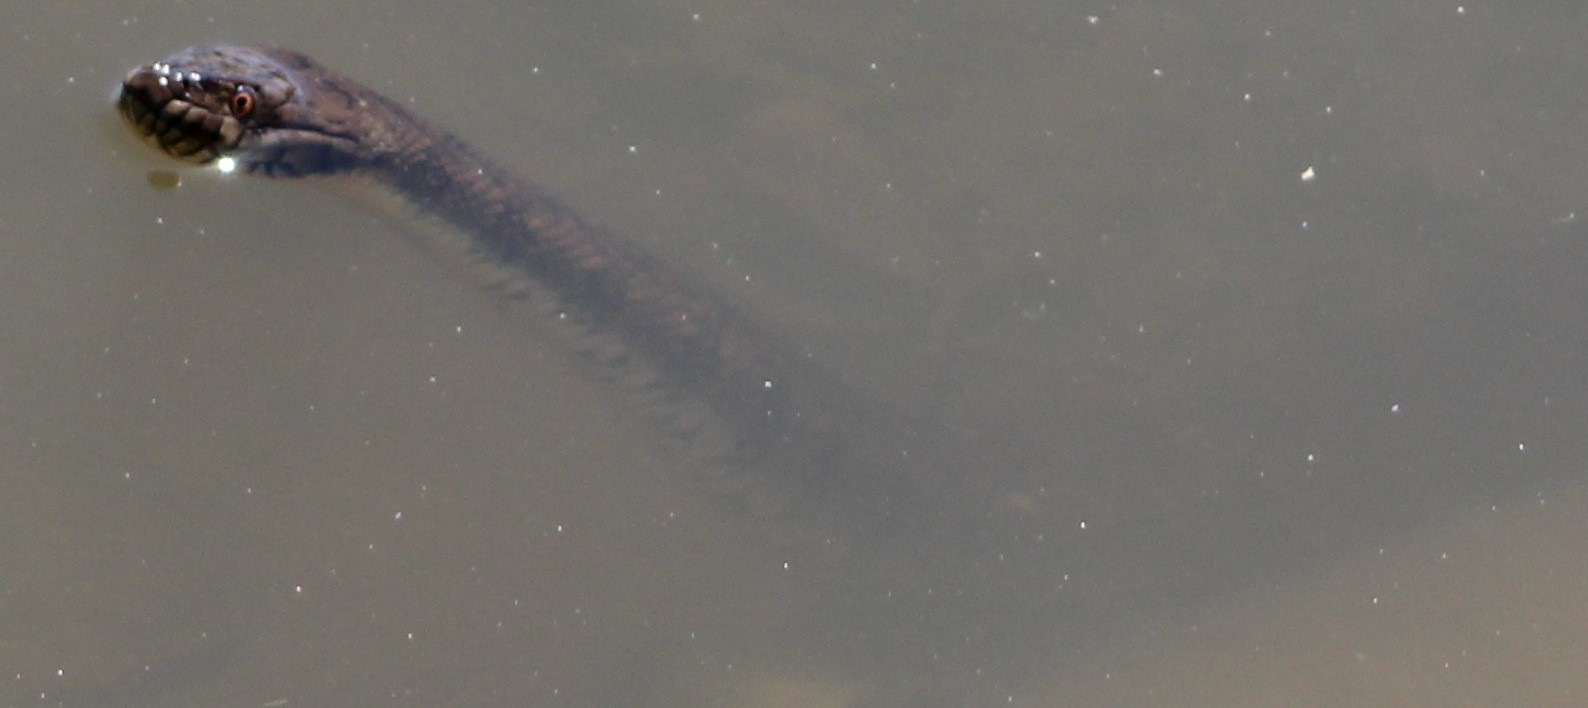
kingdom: Animalia
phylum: Chordata
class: Squamata
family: Colubridae
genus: Nerodia
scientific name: Nerodia rhombifer
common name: Diamondback water snake
